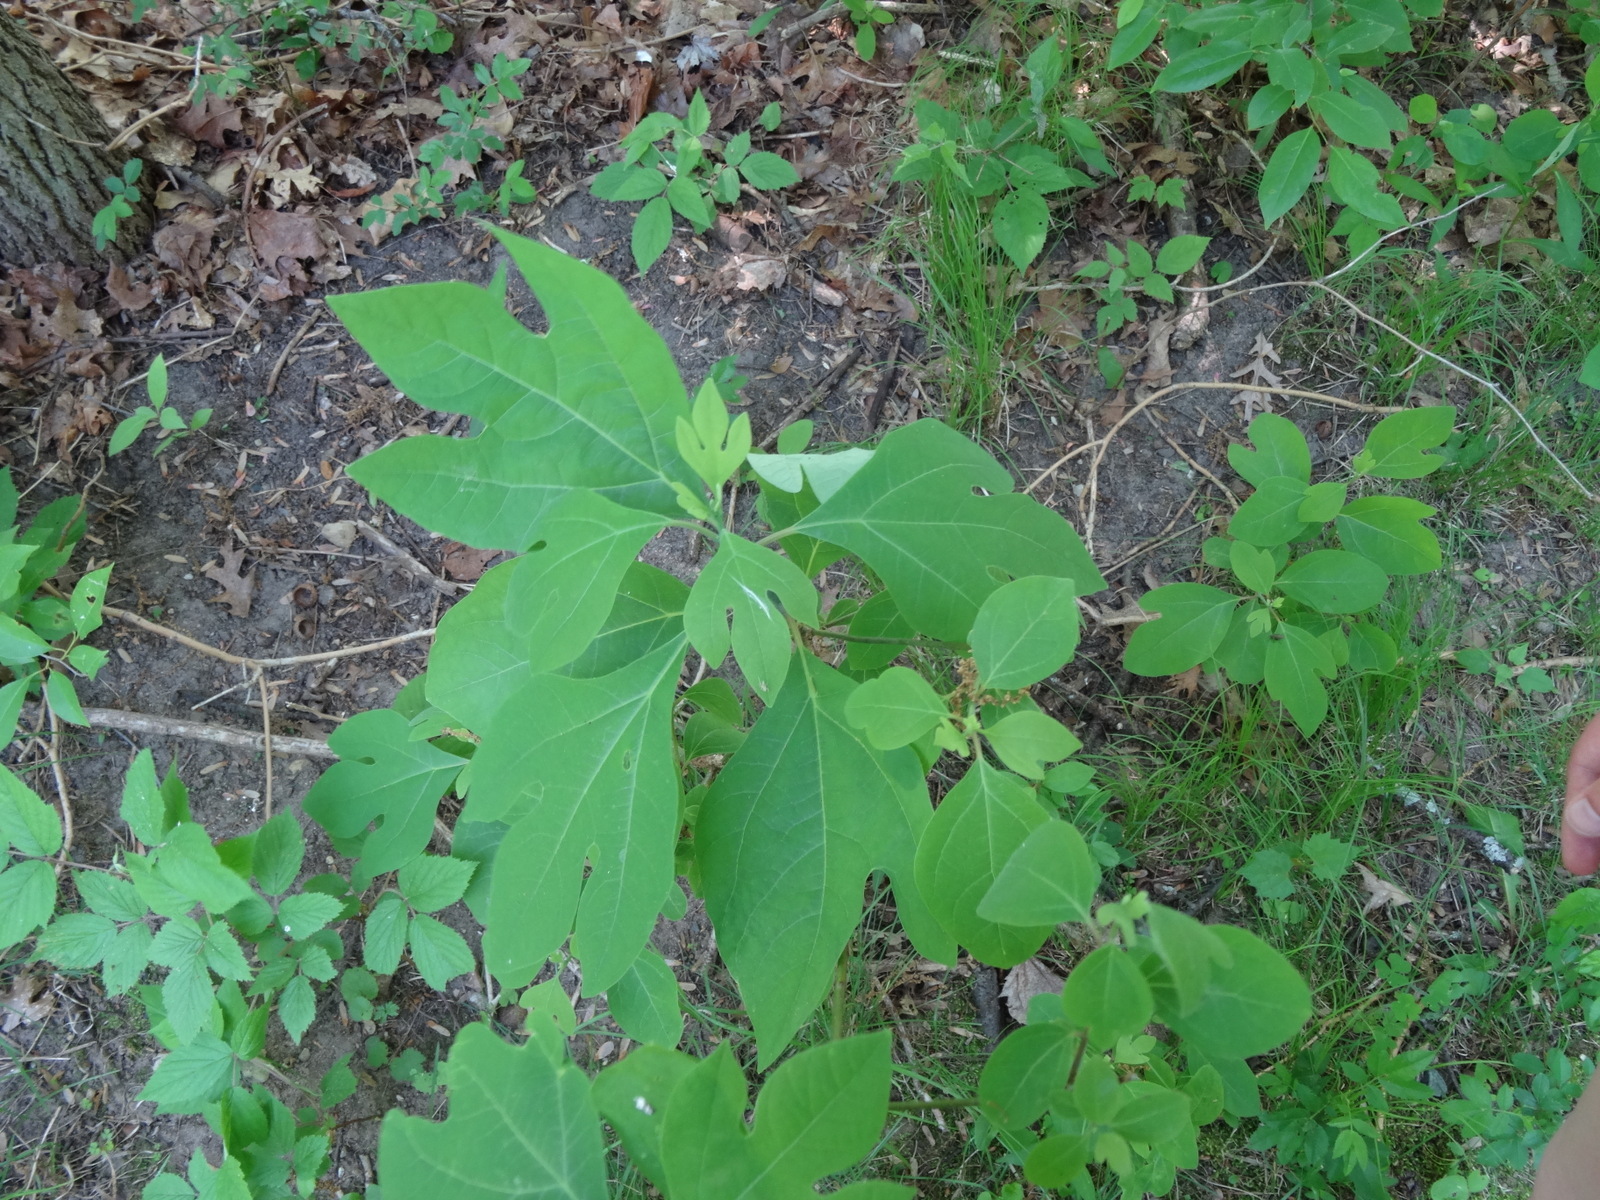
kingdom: Plantae
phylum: Tracheophyta
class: Magnoliopsida
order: Laurales
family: Lauraceae
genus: Sassafras
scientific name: Sassafras albidum
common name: Sassafras
